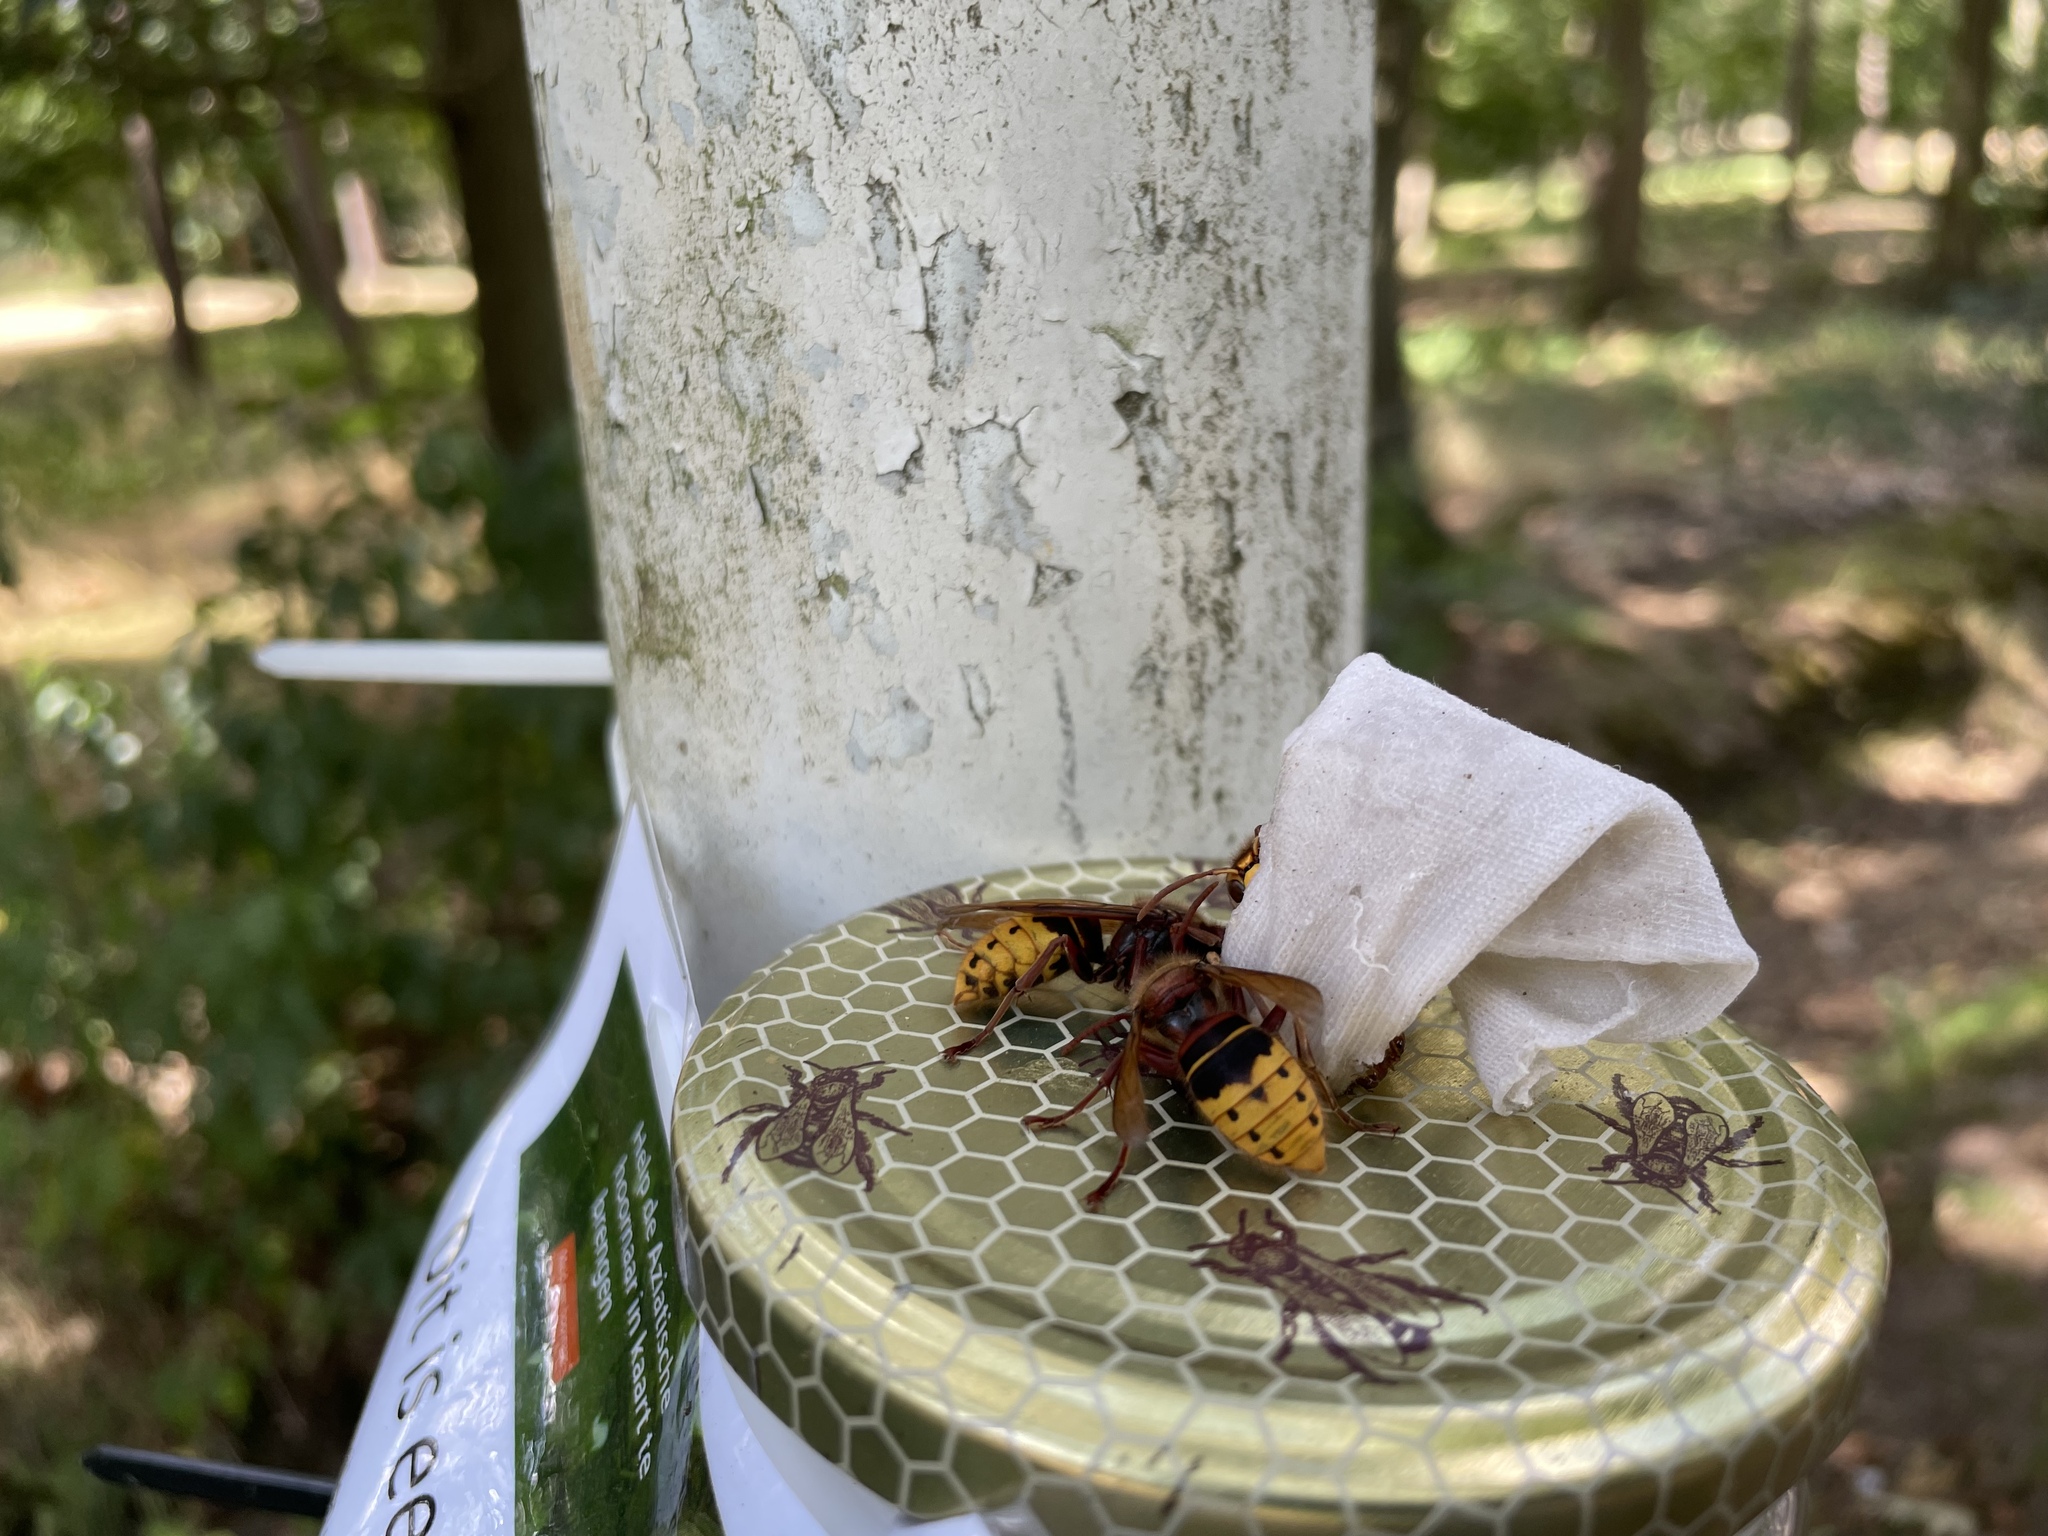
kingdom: Animalia
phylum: Arthropoda
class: Insecta
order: Hymenoptera
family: Vespidae
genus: Vespa
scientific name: Vespa crabro
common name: Hornet
